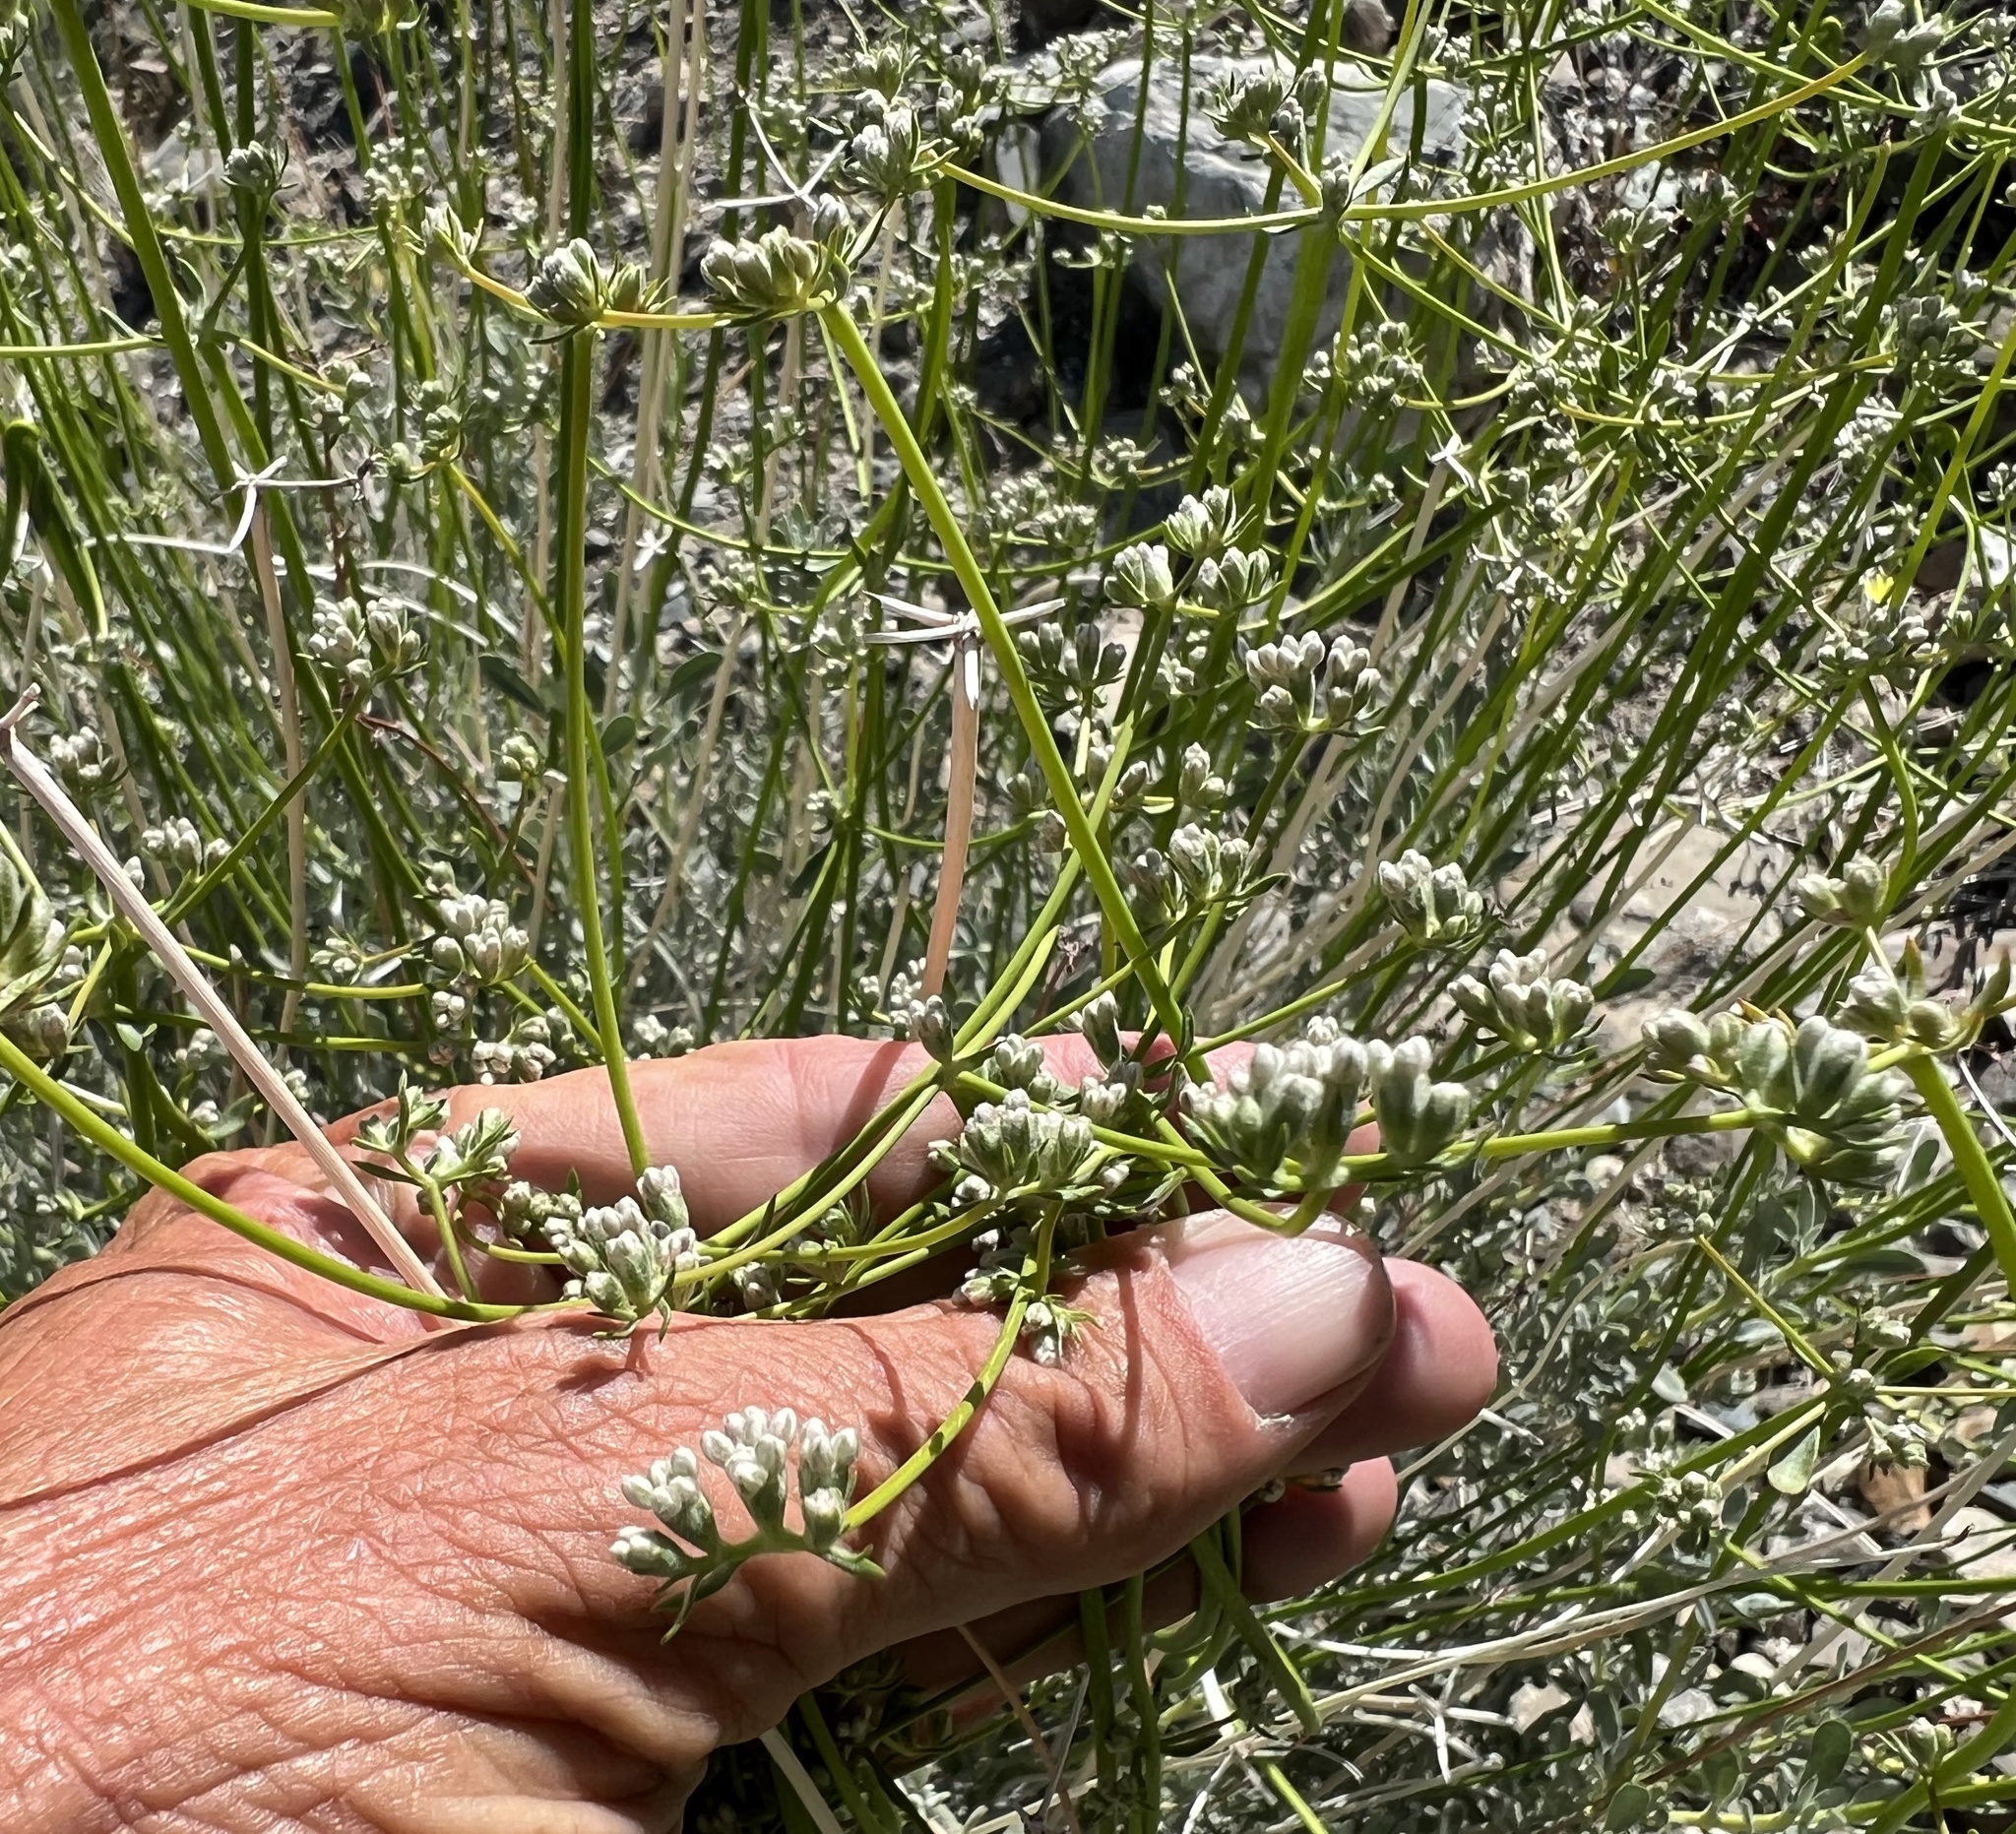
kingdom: Plantae
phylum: Tracheophyta
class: Magnoliopsida
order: Caryophyllales
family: Polygonaceae
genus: Eriogonum
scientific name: Eriogonum fasciculatum
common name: California wild buckwheat
